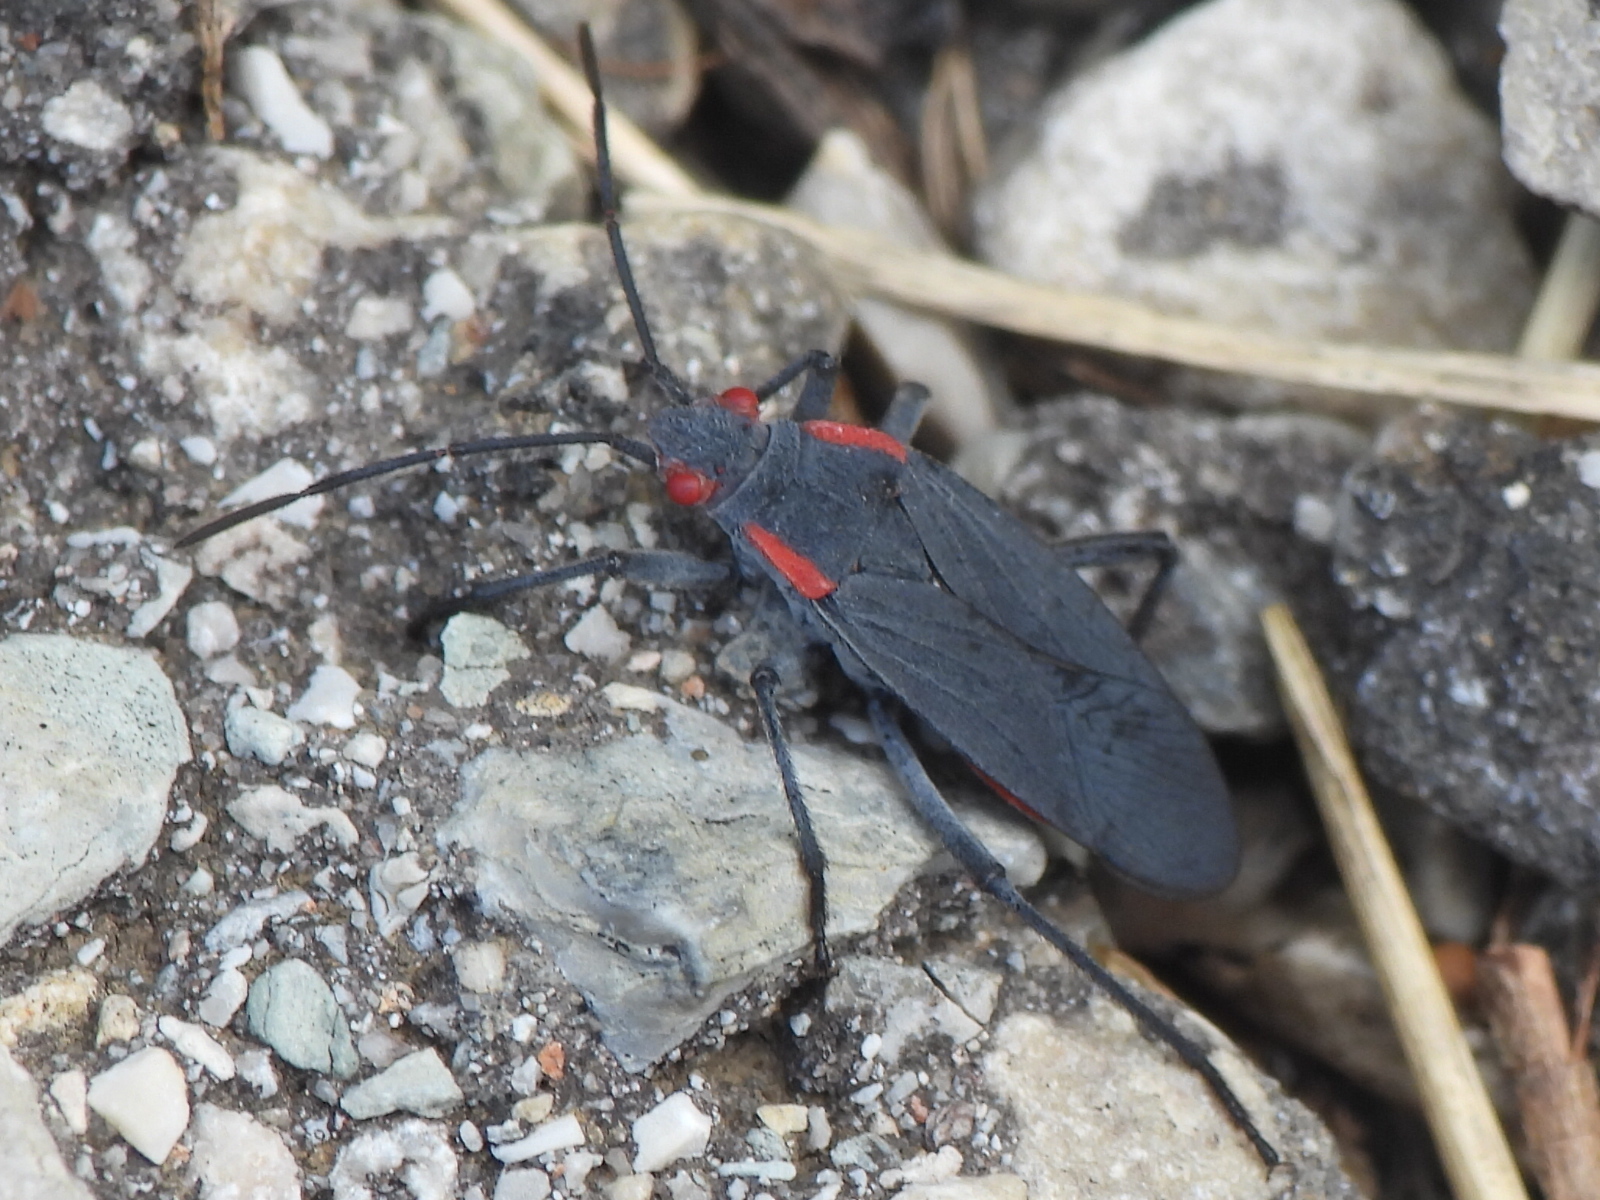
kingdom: Animalia
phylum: Arthropoda
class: Insecta
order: Hemiptera
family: Rhopalidae
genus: Jadera
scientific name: Jadera haematoloma
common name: Red-shouldered bug
